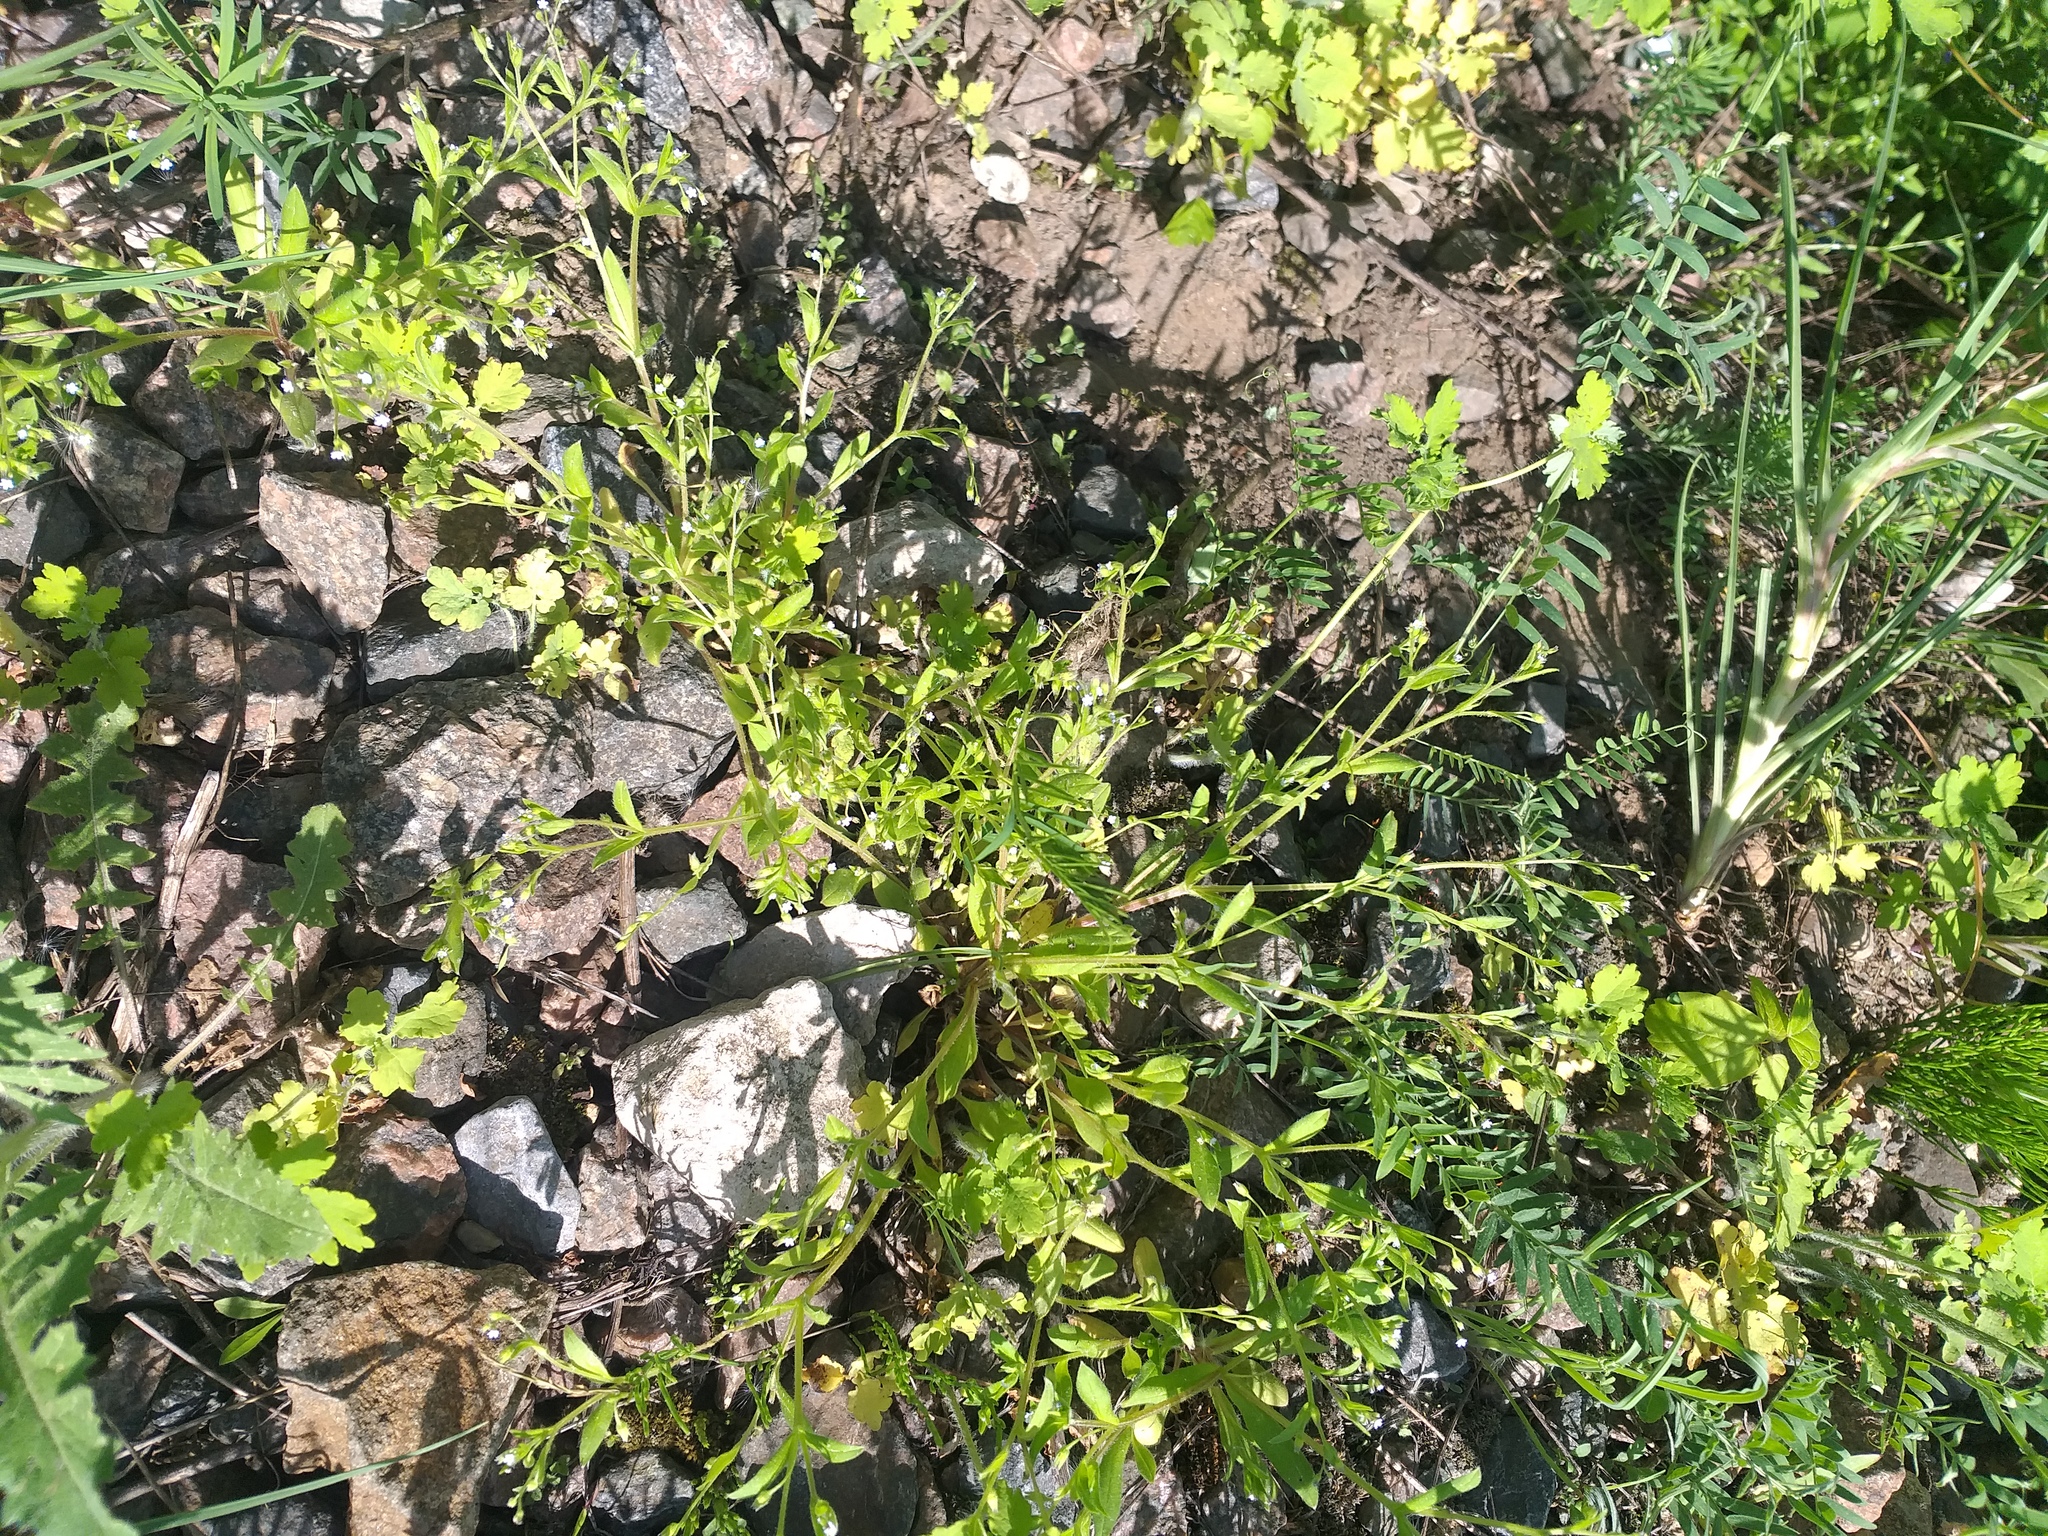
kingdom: Plantae
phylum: Tracheophyta
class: Magnoliopsida
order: Boraginales
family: Boraginaceae
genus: Myosotis
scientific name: Myosotis sparsiflora
